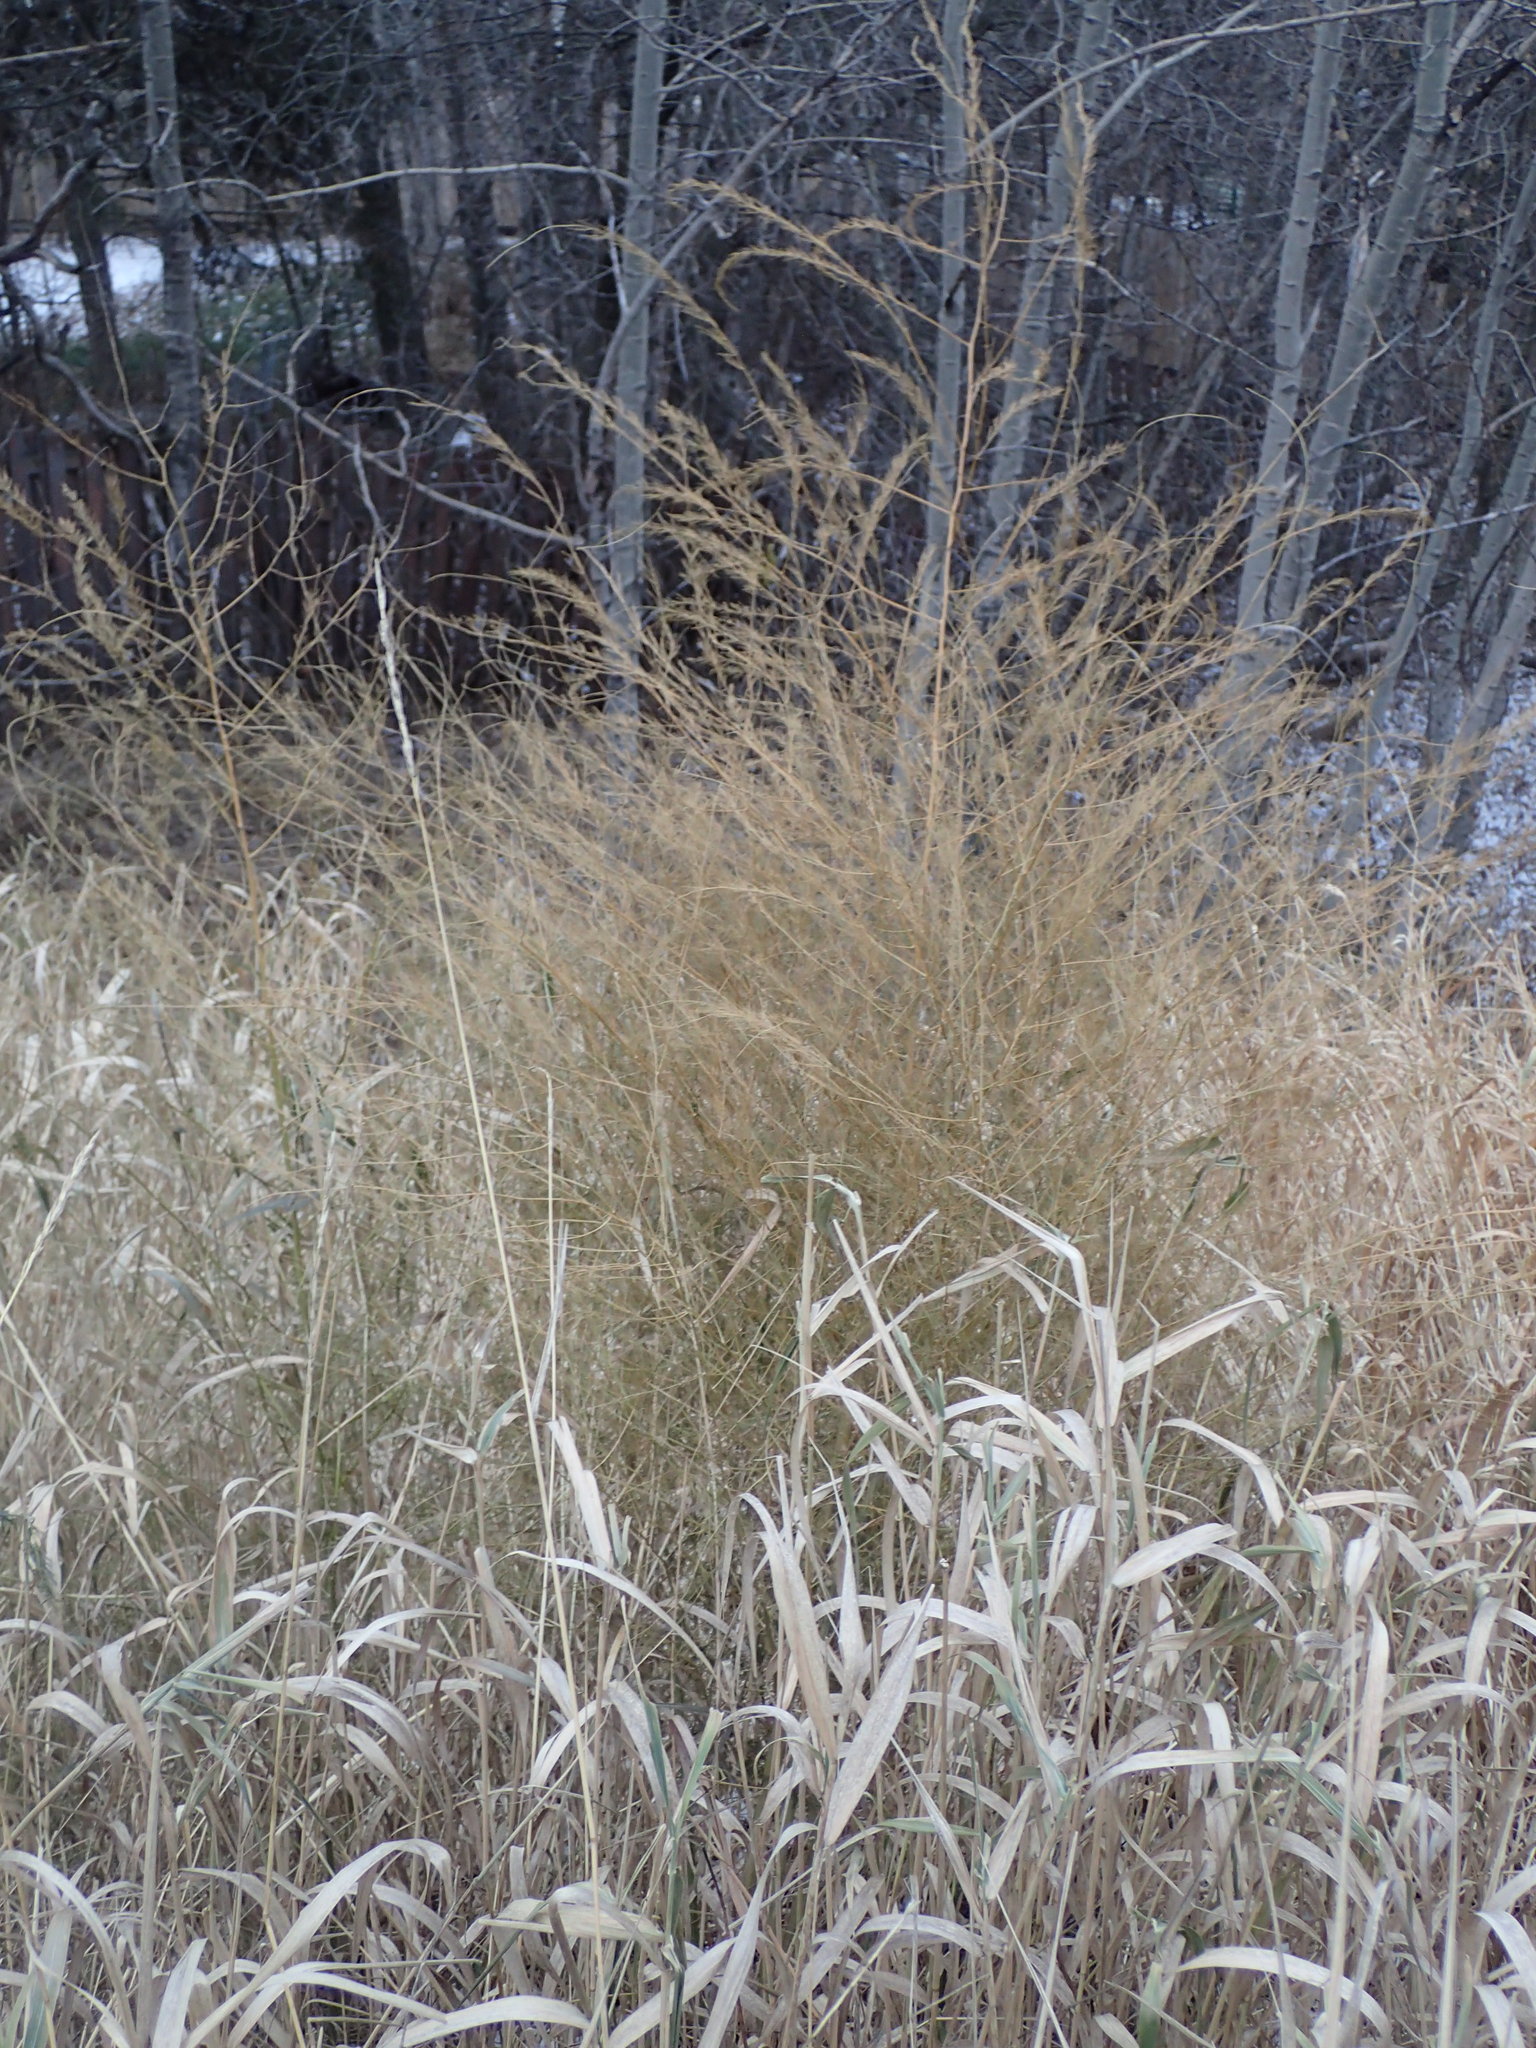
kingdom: Plantae
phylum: Tracheophyta
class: Liliopsida
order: Asparagales
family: Asparagaceae
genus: Asparagus
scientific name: Asparagus officinalis
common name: Garden asparagus
